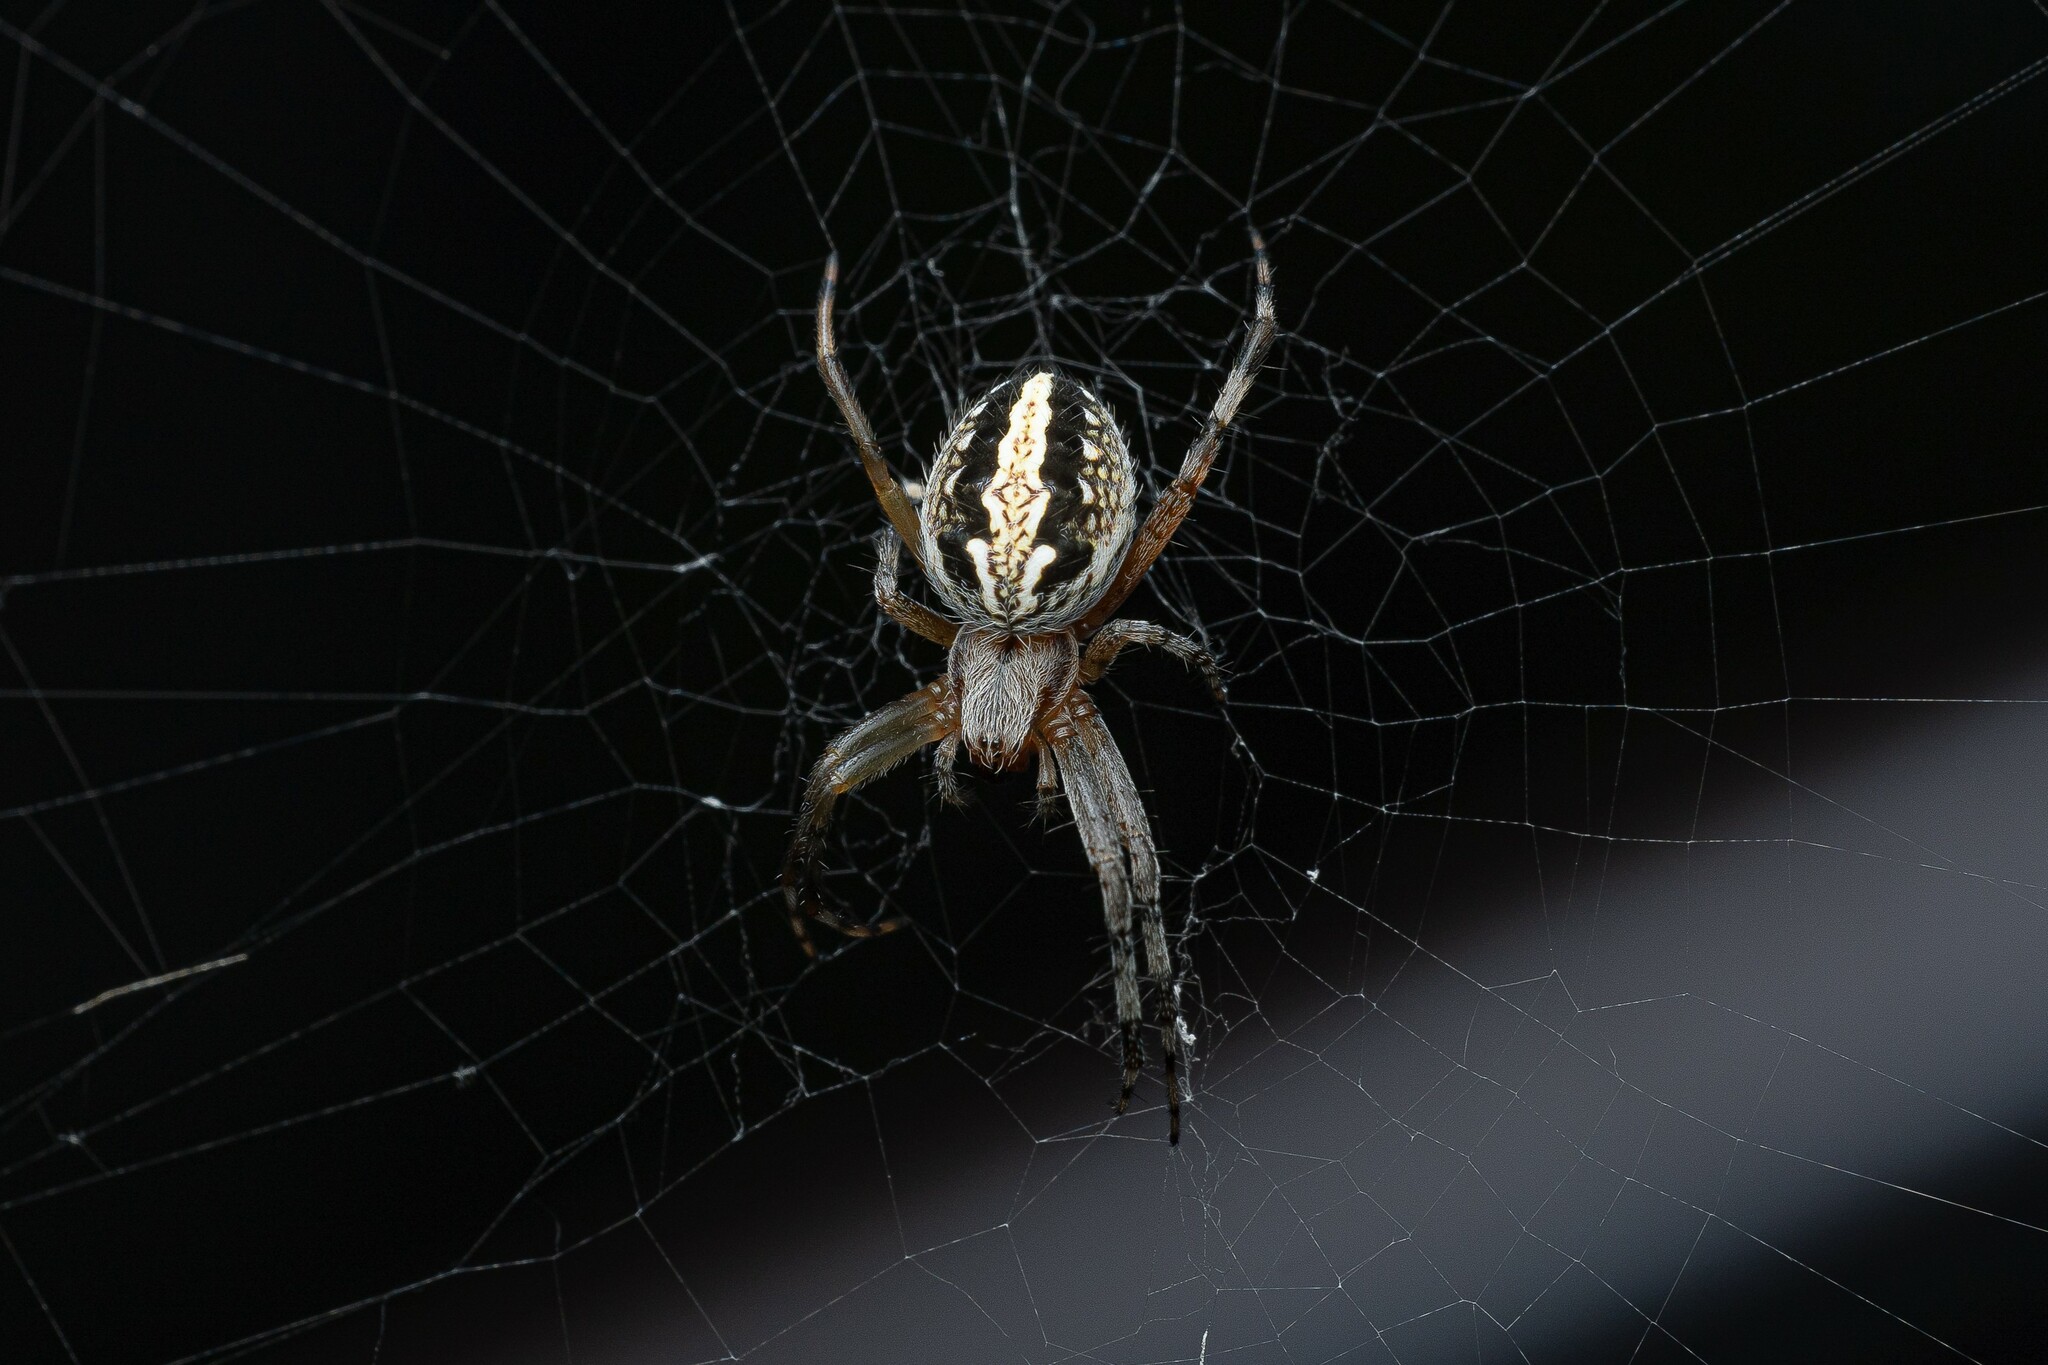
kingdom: Animalia
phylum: Arthropoda
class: Arachnida
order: Araneae
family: Araneidae
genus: Neoscona
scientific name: Neoscona oaxacensis
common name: Orb weavers
